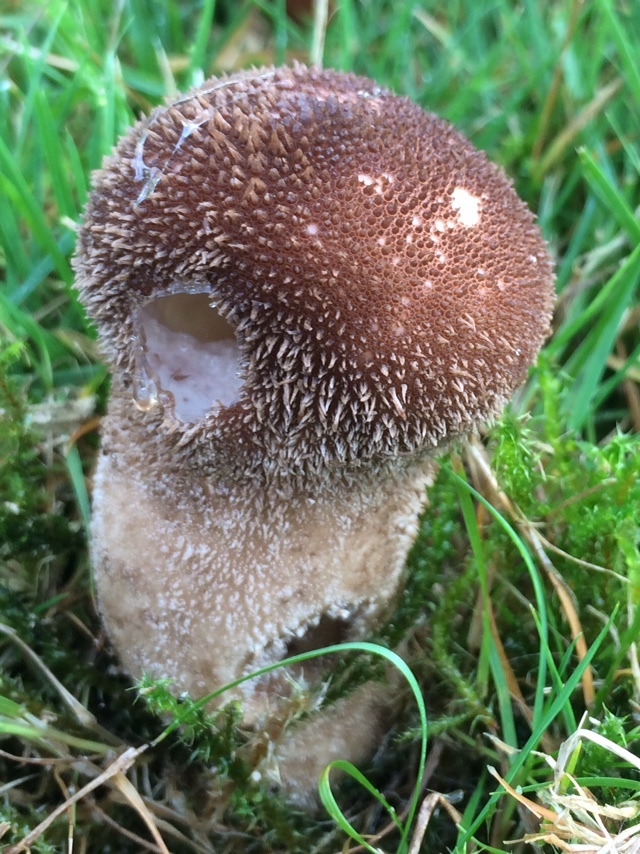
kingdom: Fungi
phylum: Basidiomycota
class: Agaricomycetes
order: Agaricales
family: Lycoperdaceae
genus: Lycoperdon
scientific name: Lycoperdon nigrescens
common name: Blackish puffball
